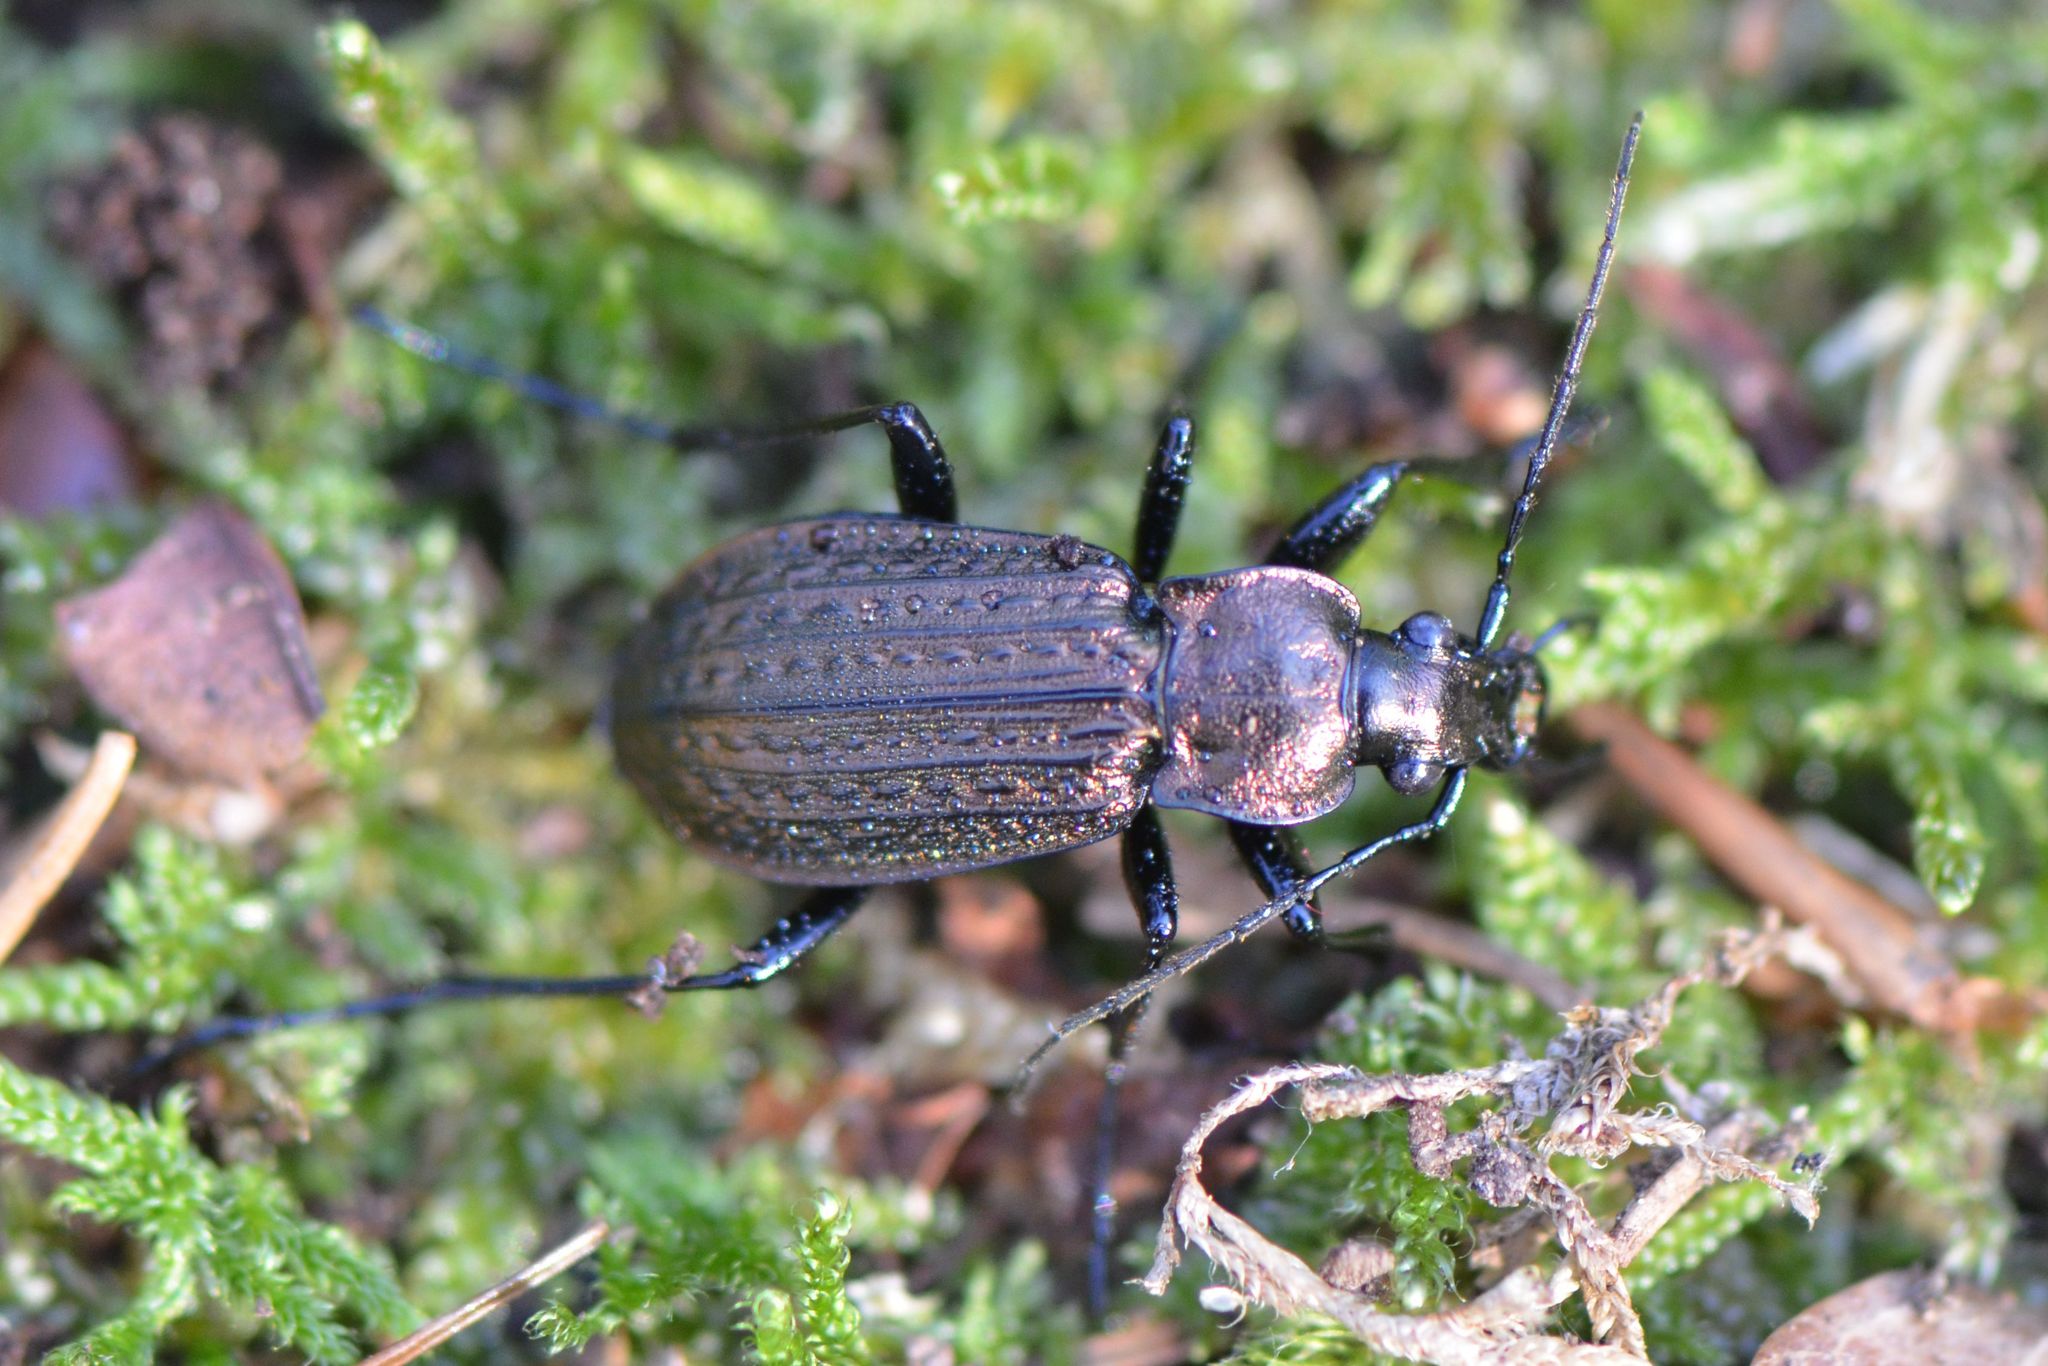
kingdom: Animalia
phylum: Arthropoda
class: Insecta
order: Coleoptera
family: Carabidae
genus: Carabus
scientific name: Carabus granulatus
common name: Granulate ground beetle
